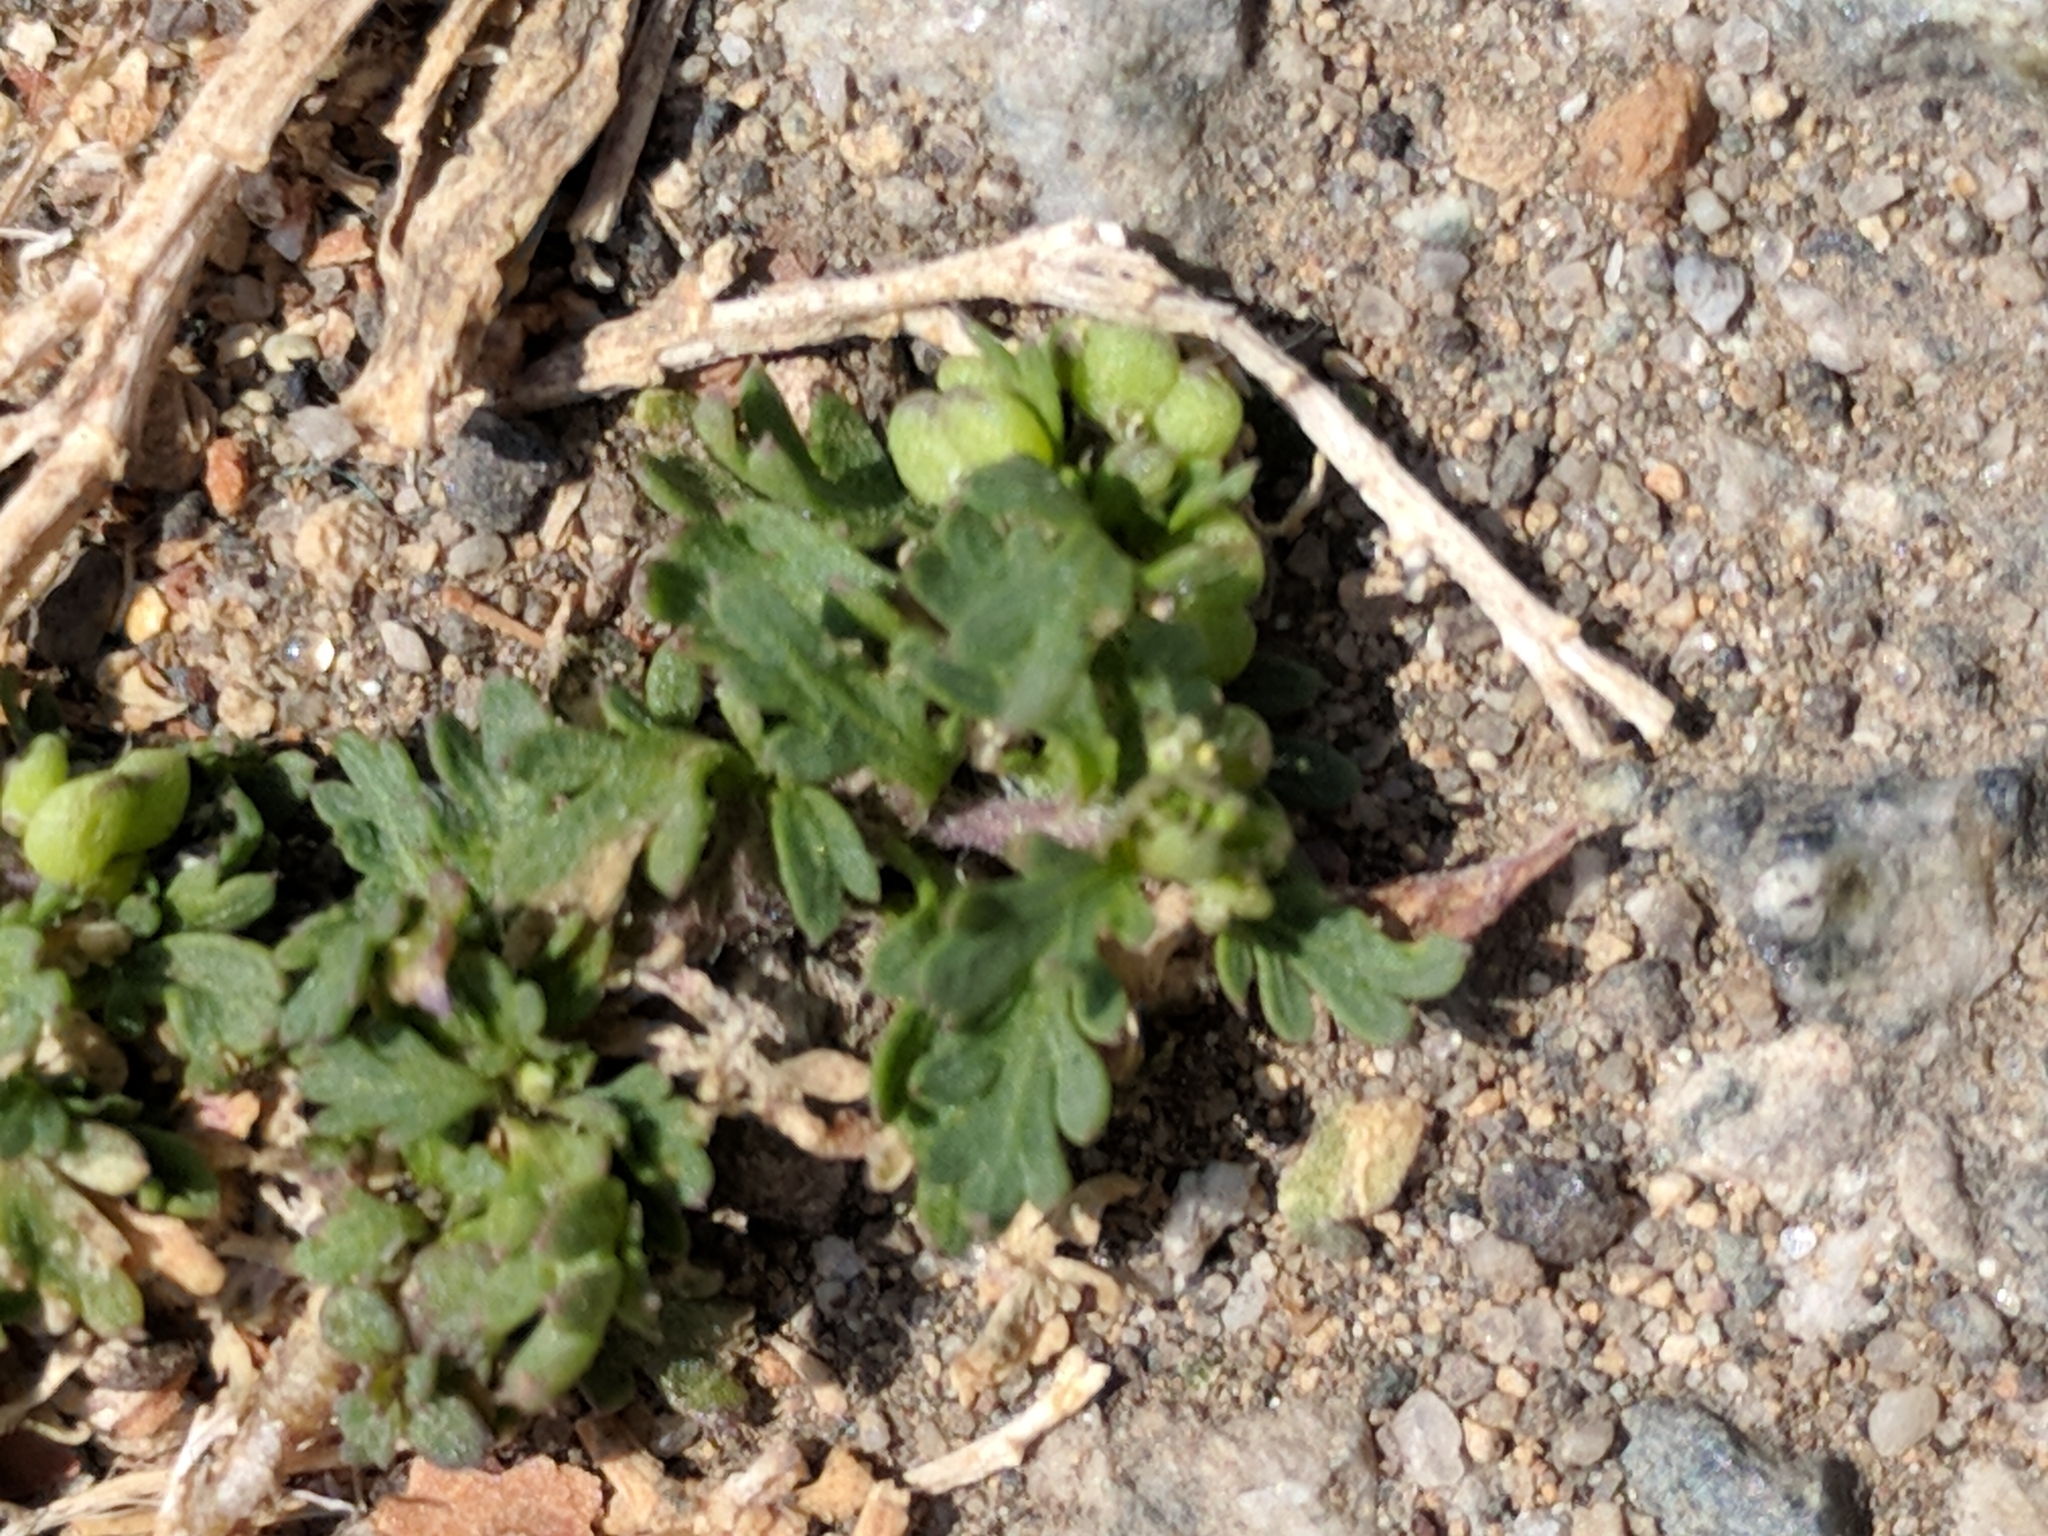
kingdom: Plantae
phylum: Tracheophyta
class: Magnoliopsida
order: Brassicales
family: Brassicaceae
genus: Lepidium
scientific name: Lepidium didymum
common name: Lesser swinecress
